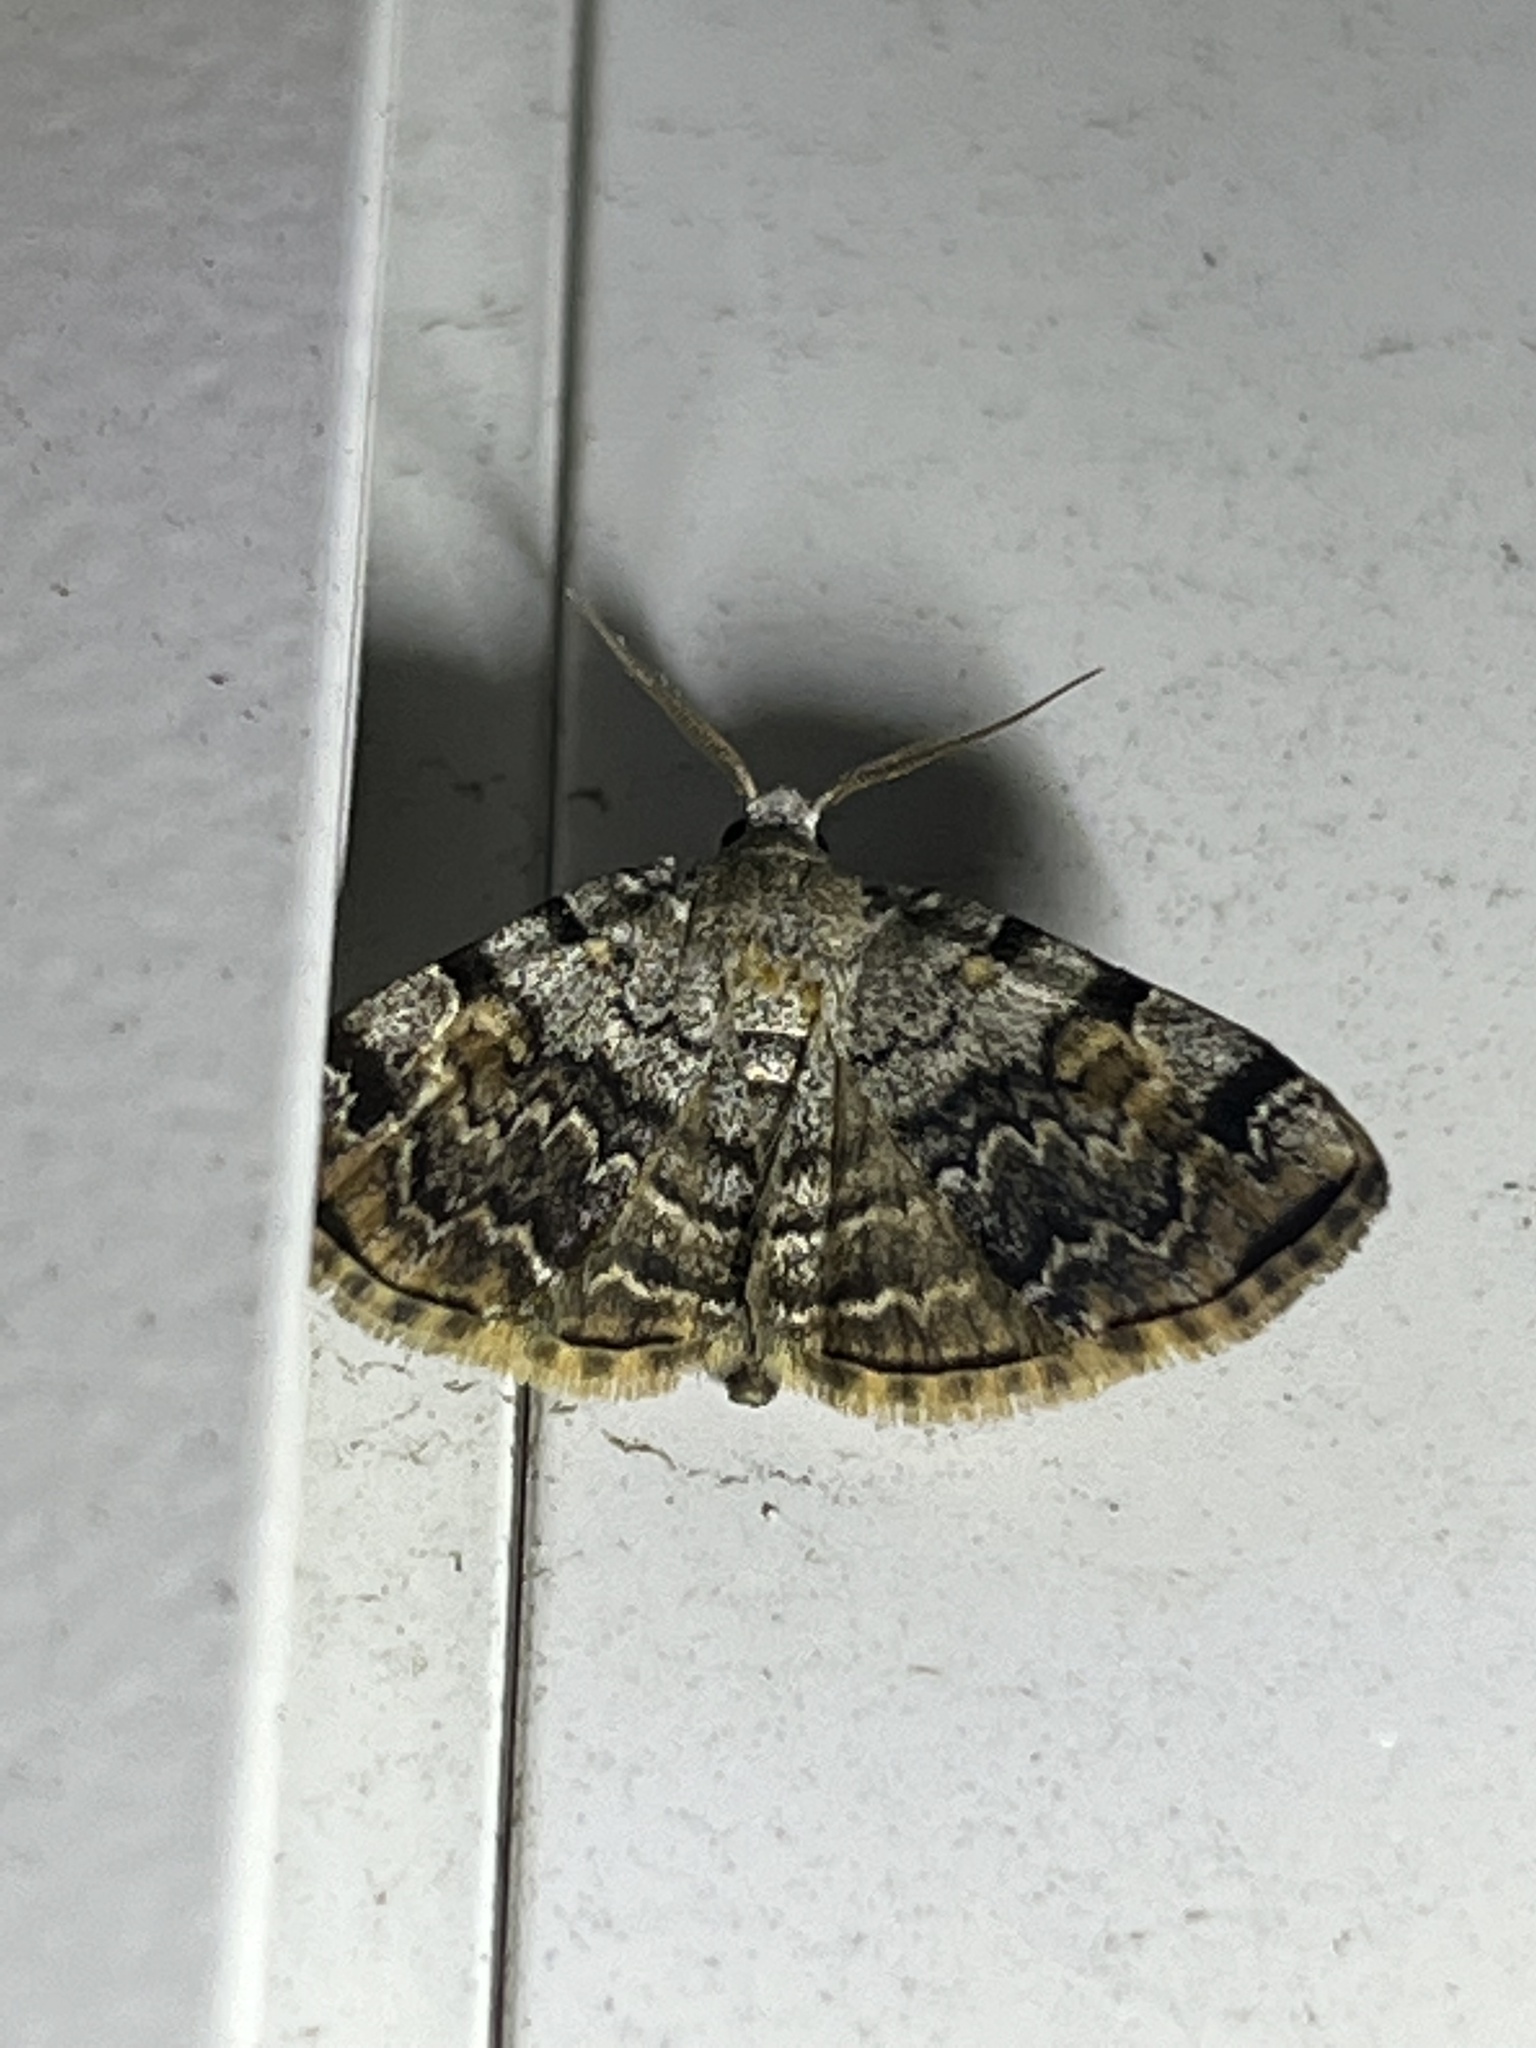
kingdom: Animalia
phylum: Arthropoda
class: Insecta
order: Lepidoptera
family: Erebidae
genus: Idia
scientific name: Idia americalis
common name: American idia moth
